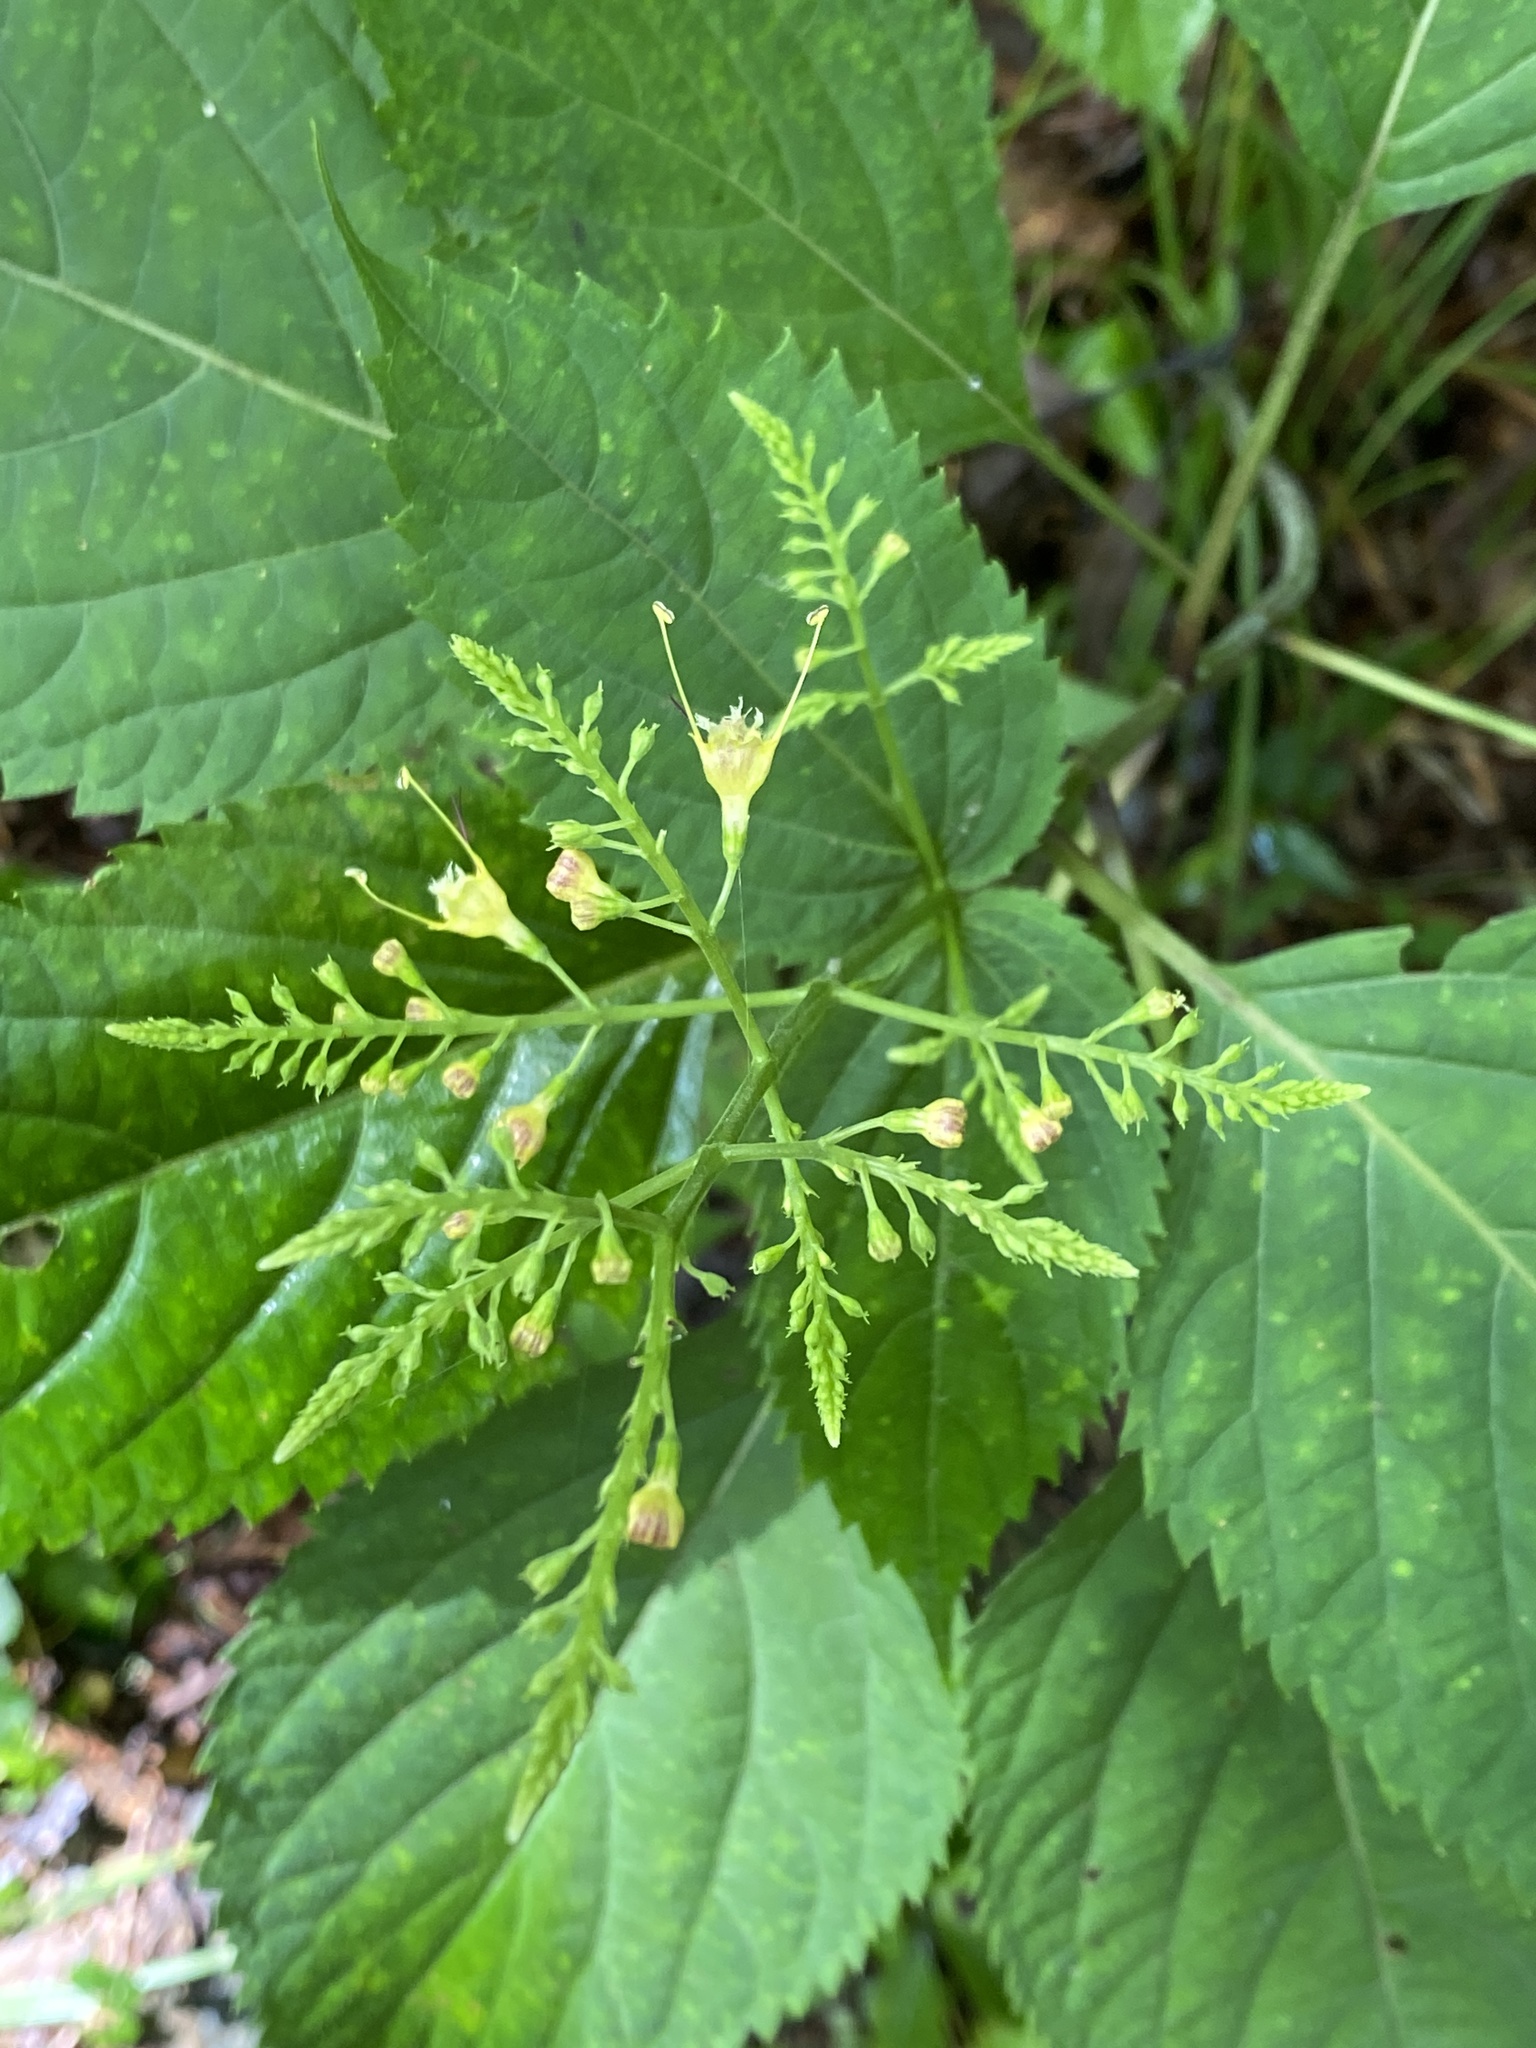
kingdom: Plantae
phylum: Tracheophyta
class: Magnoliopsida
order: Lamiales
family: Lamiaceae
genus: Collinsonia
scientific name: Collinsonia canadensis
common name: Northern horsebalm
